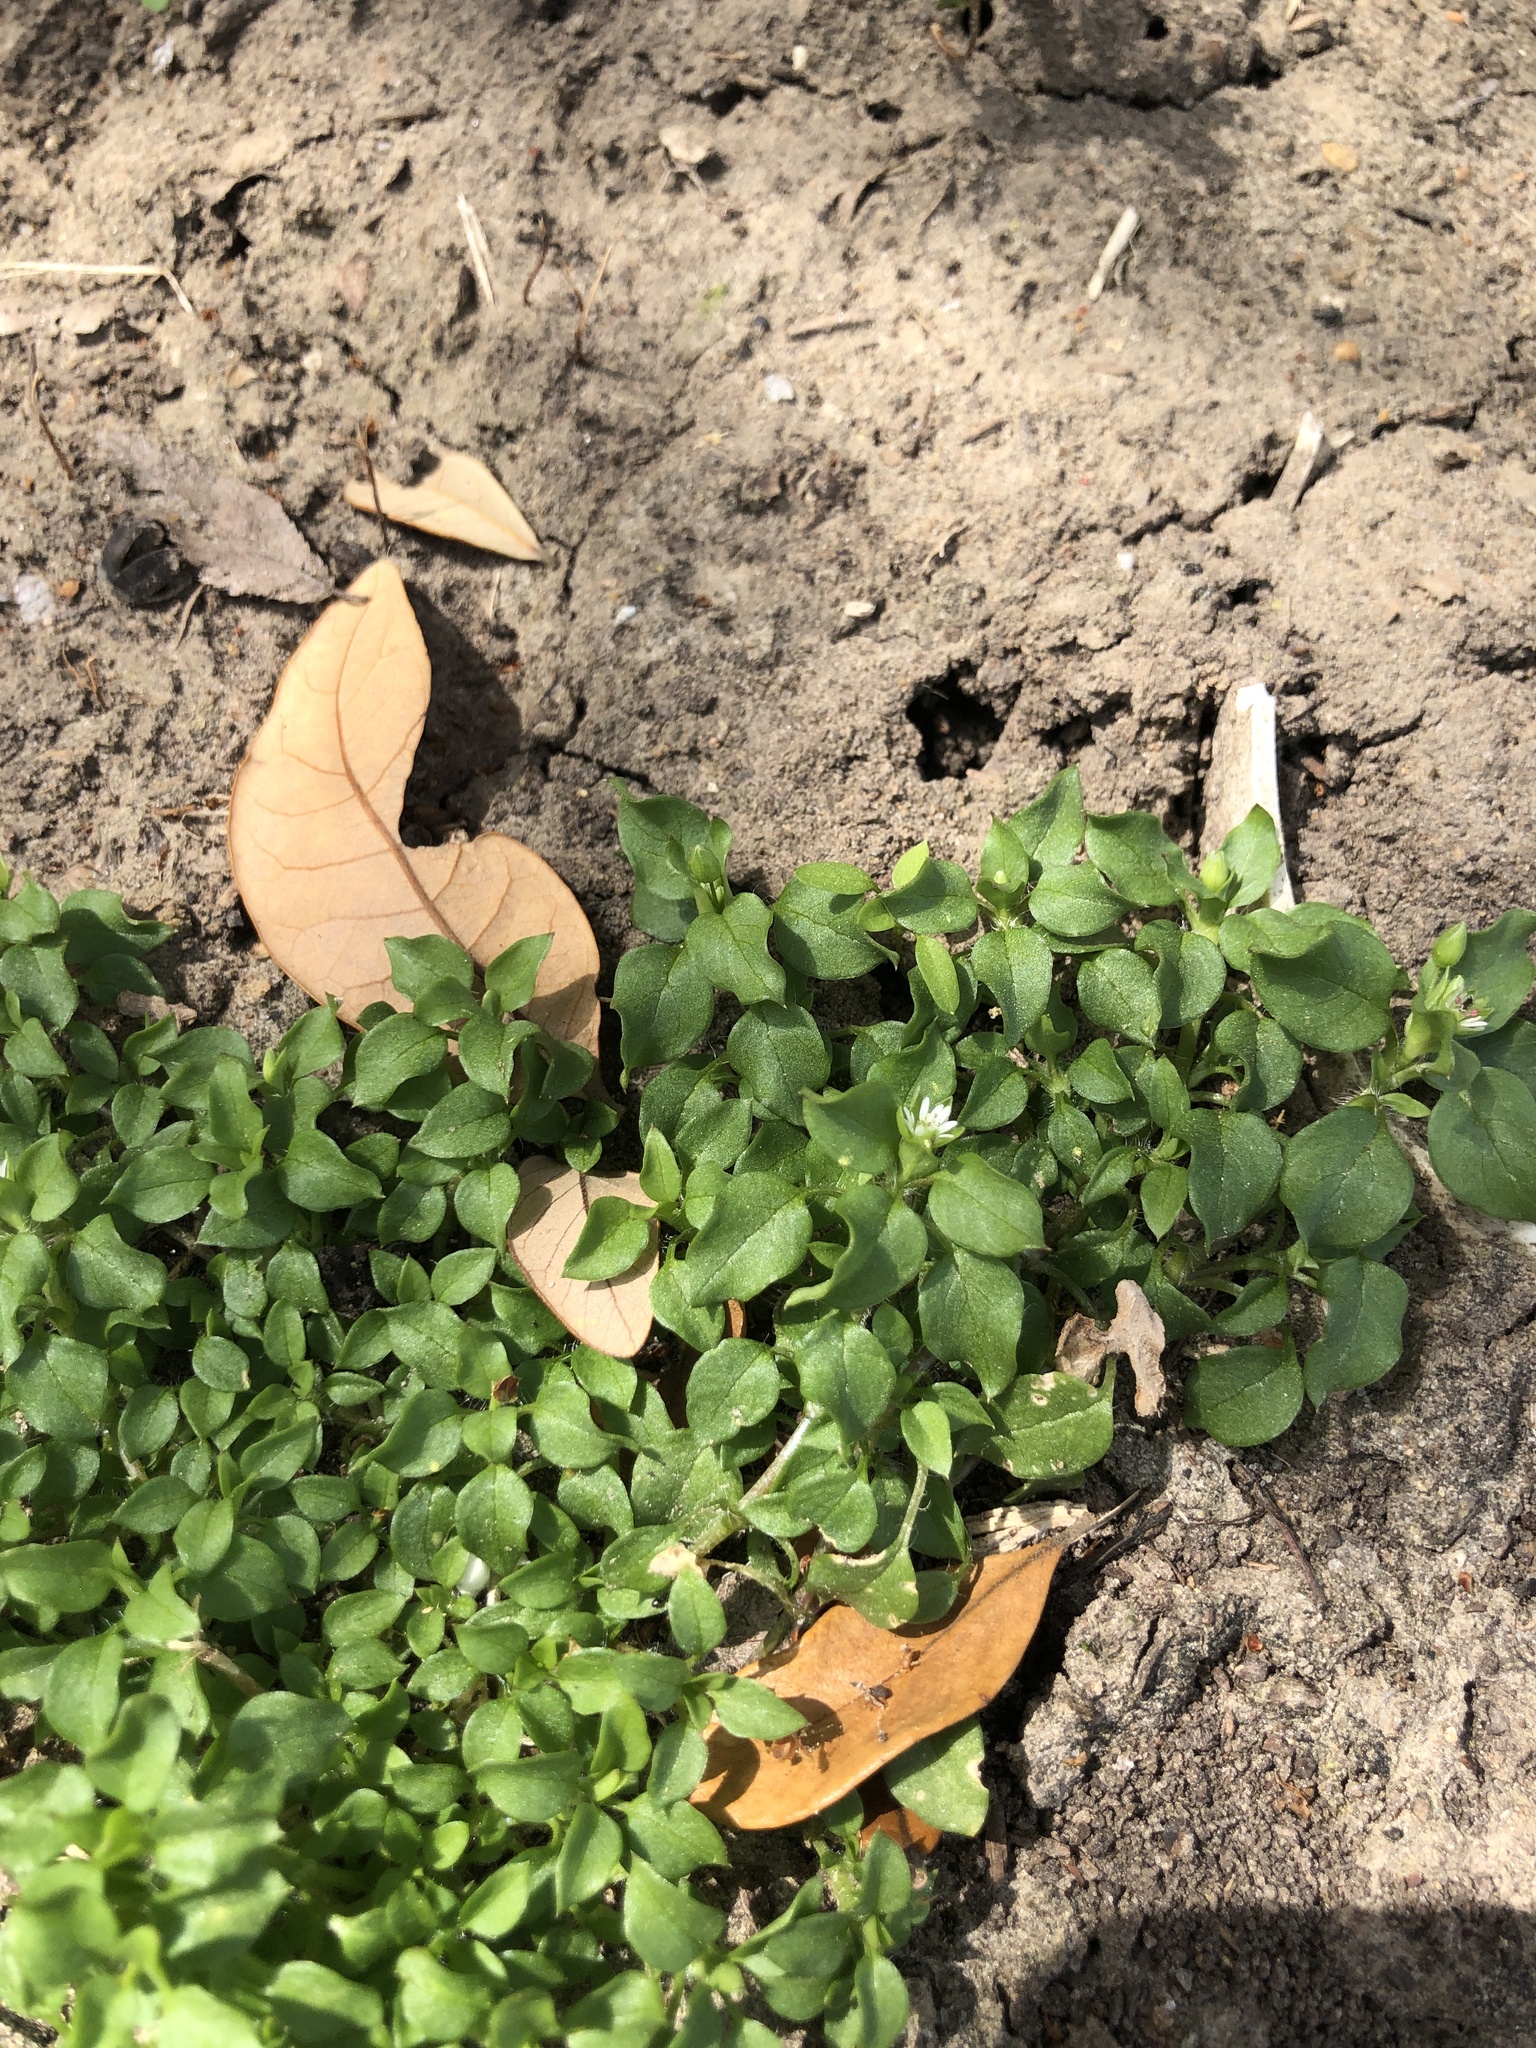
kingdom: Plantae
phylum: Tracheophyta
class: Magnoliopsida
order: Caryophyllales
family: Caryophyllaceae
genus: Stellaria
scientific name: Stellaria media
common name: Common chickweed
